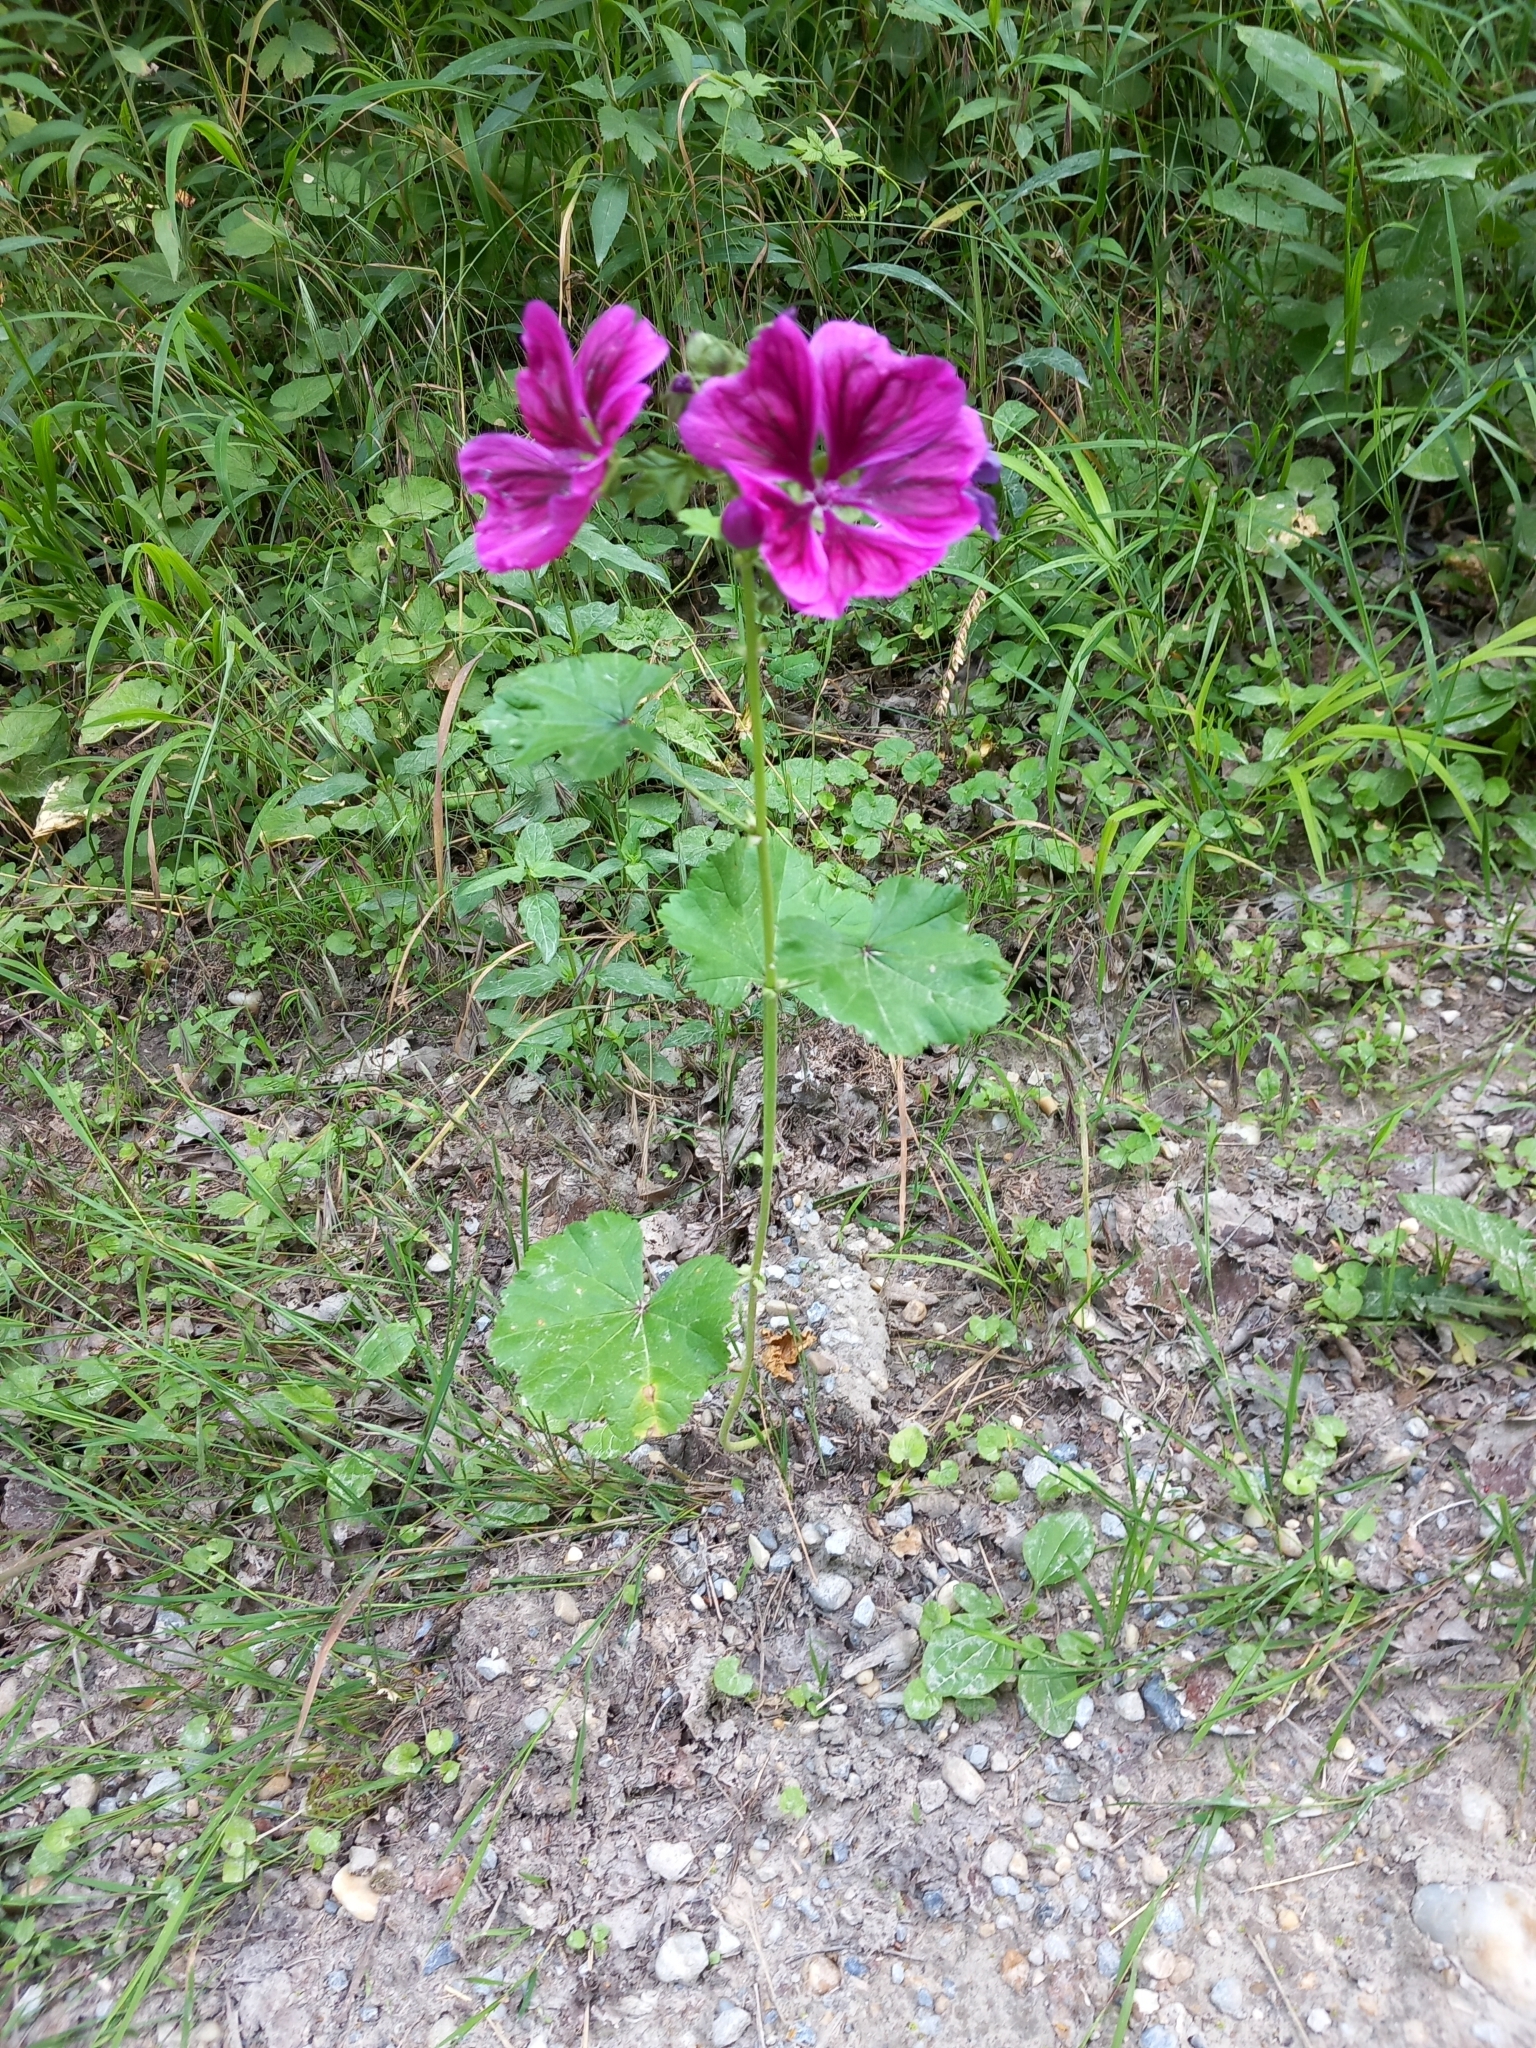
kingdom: Plantae
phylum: Tracheophyta
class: Magnoliopsida
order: Malvales
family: Malvaceae
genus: Malva
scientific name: Malva sylvestris
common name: Common mallow
